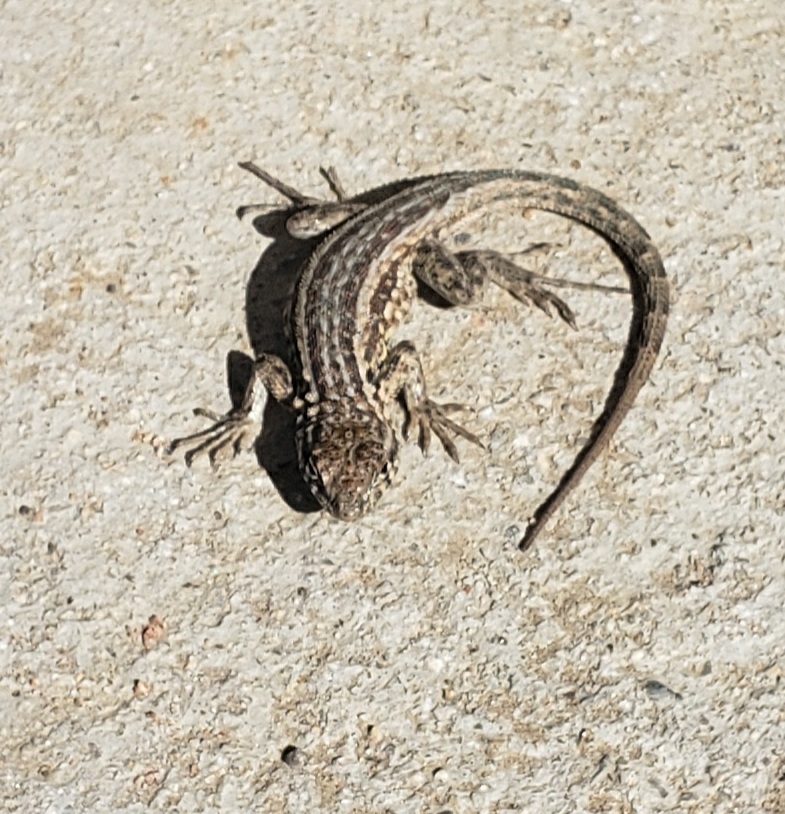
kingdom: Animalia
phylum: Chordata
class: Squamata
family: Phrynosomatidae
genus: Uta
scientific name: Uta stansburiana
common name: Side-blotched lizard
